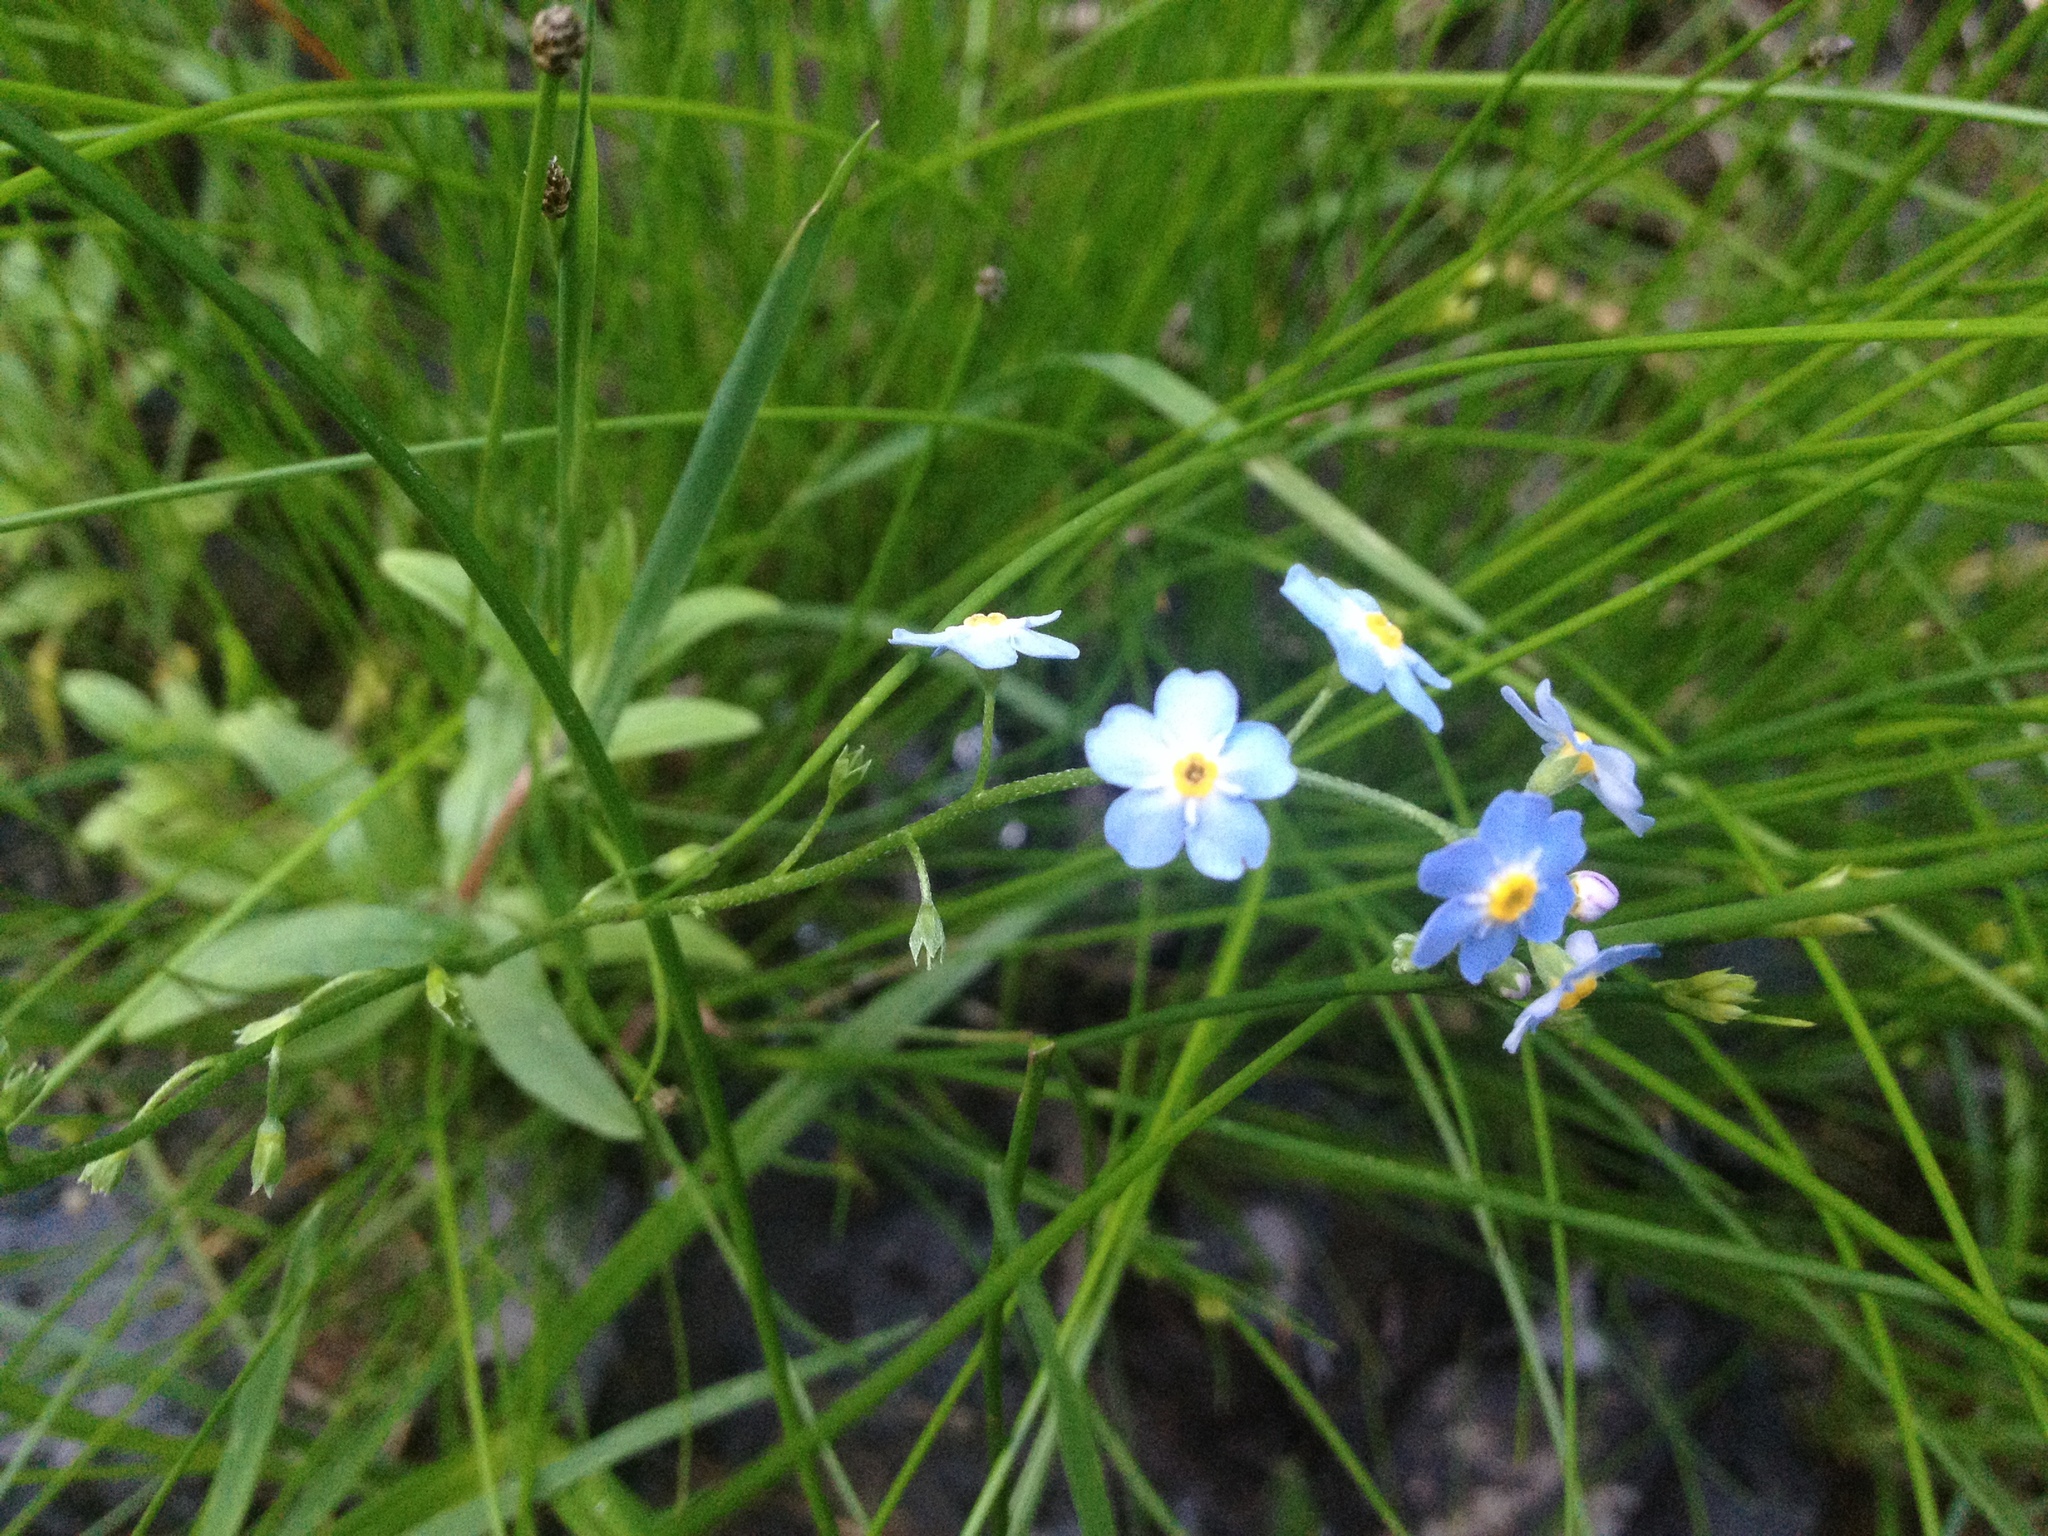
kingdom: Plantae
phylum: Tracheophyta
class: Magnoliopsida
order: Boraginales
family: Boraginaceae
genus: Myosotis
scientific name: Myosotis scorpioides
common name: Water forget-me-not
